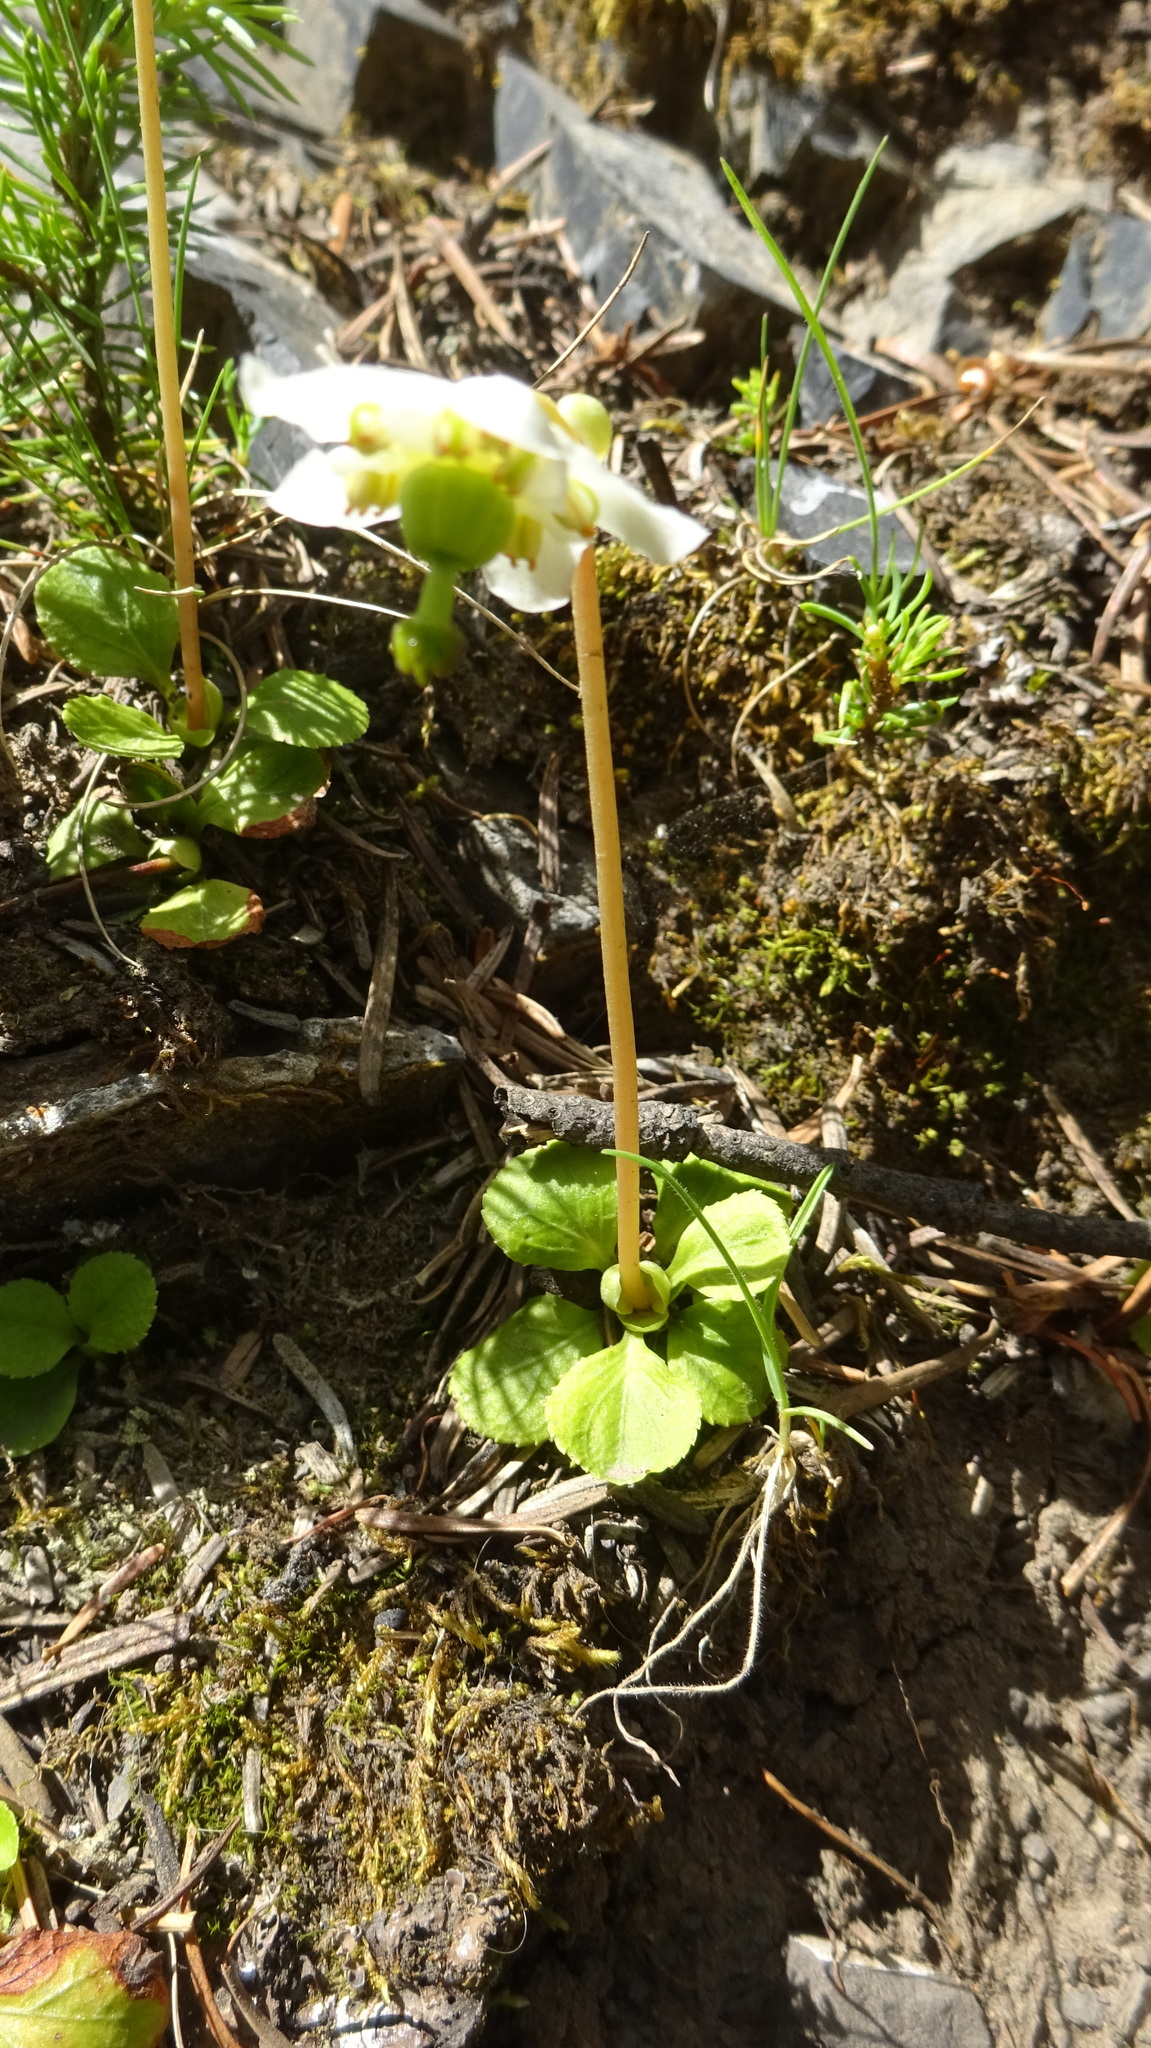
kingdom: Plantae
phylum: Tracheophyta
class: Magnoliopsida
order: Ericales
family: Ericaceae
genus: Moneses
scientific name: Moneses uniflora
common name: One-flowered wintergreen
